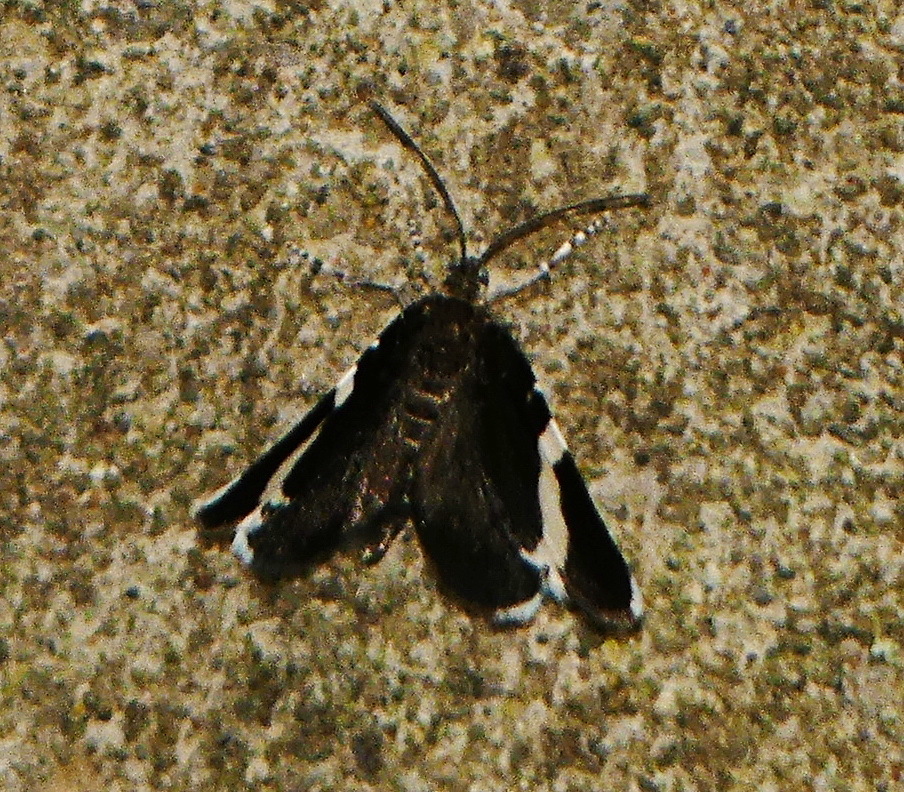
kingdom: Animalia
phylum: Arthropoda
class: Insecta
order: Lepidoptera
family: Geometridae
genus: Trichodezia
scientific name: Trichodezia albovittata
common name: White striped black
